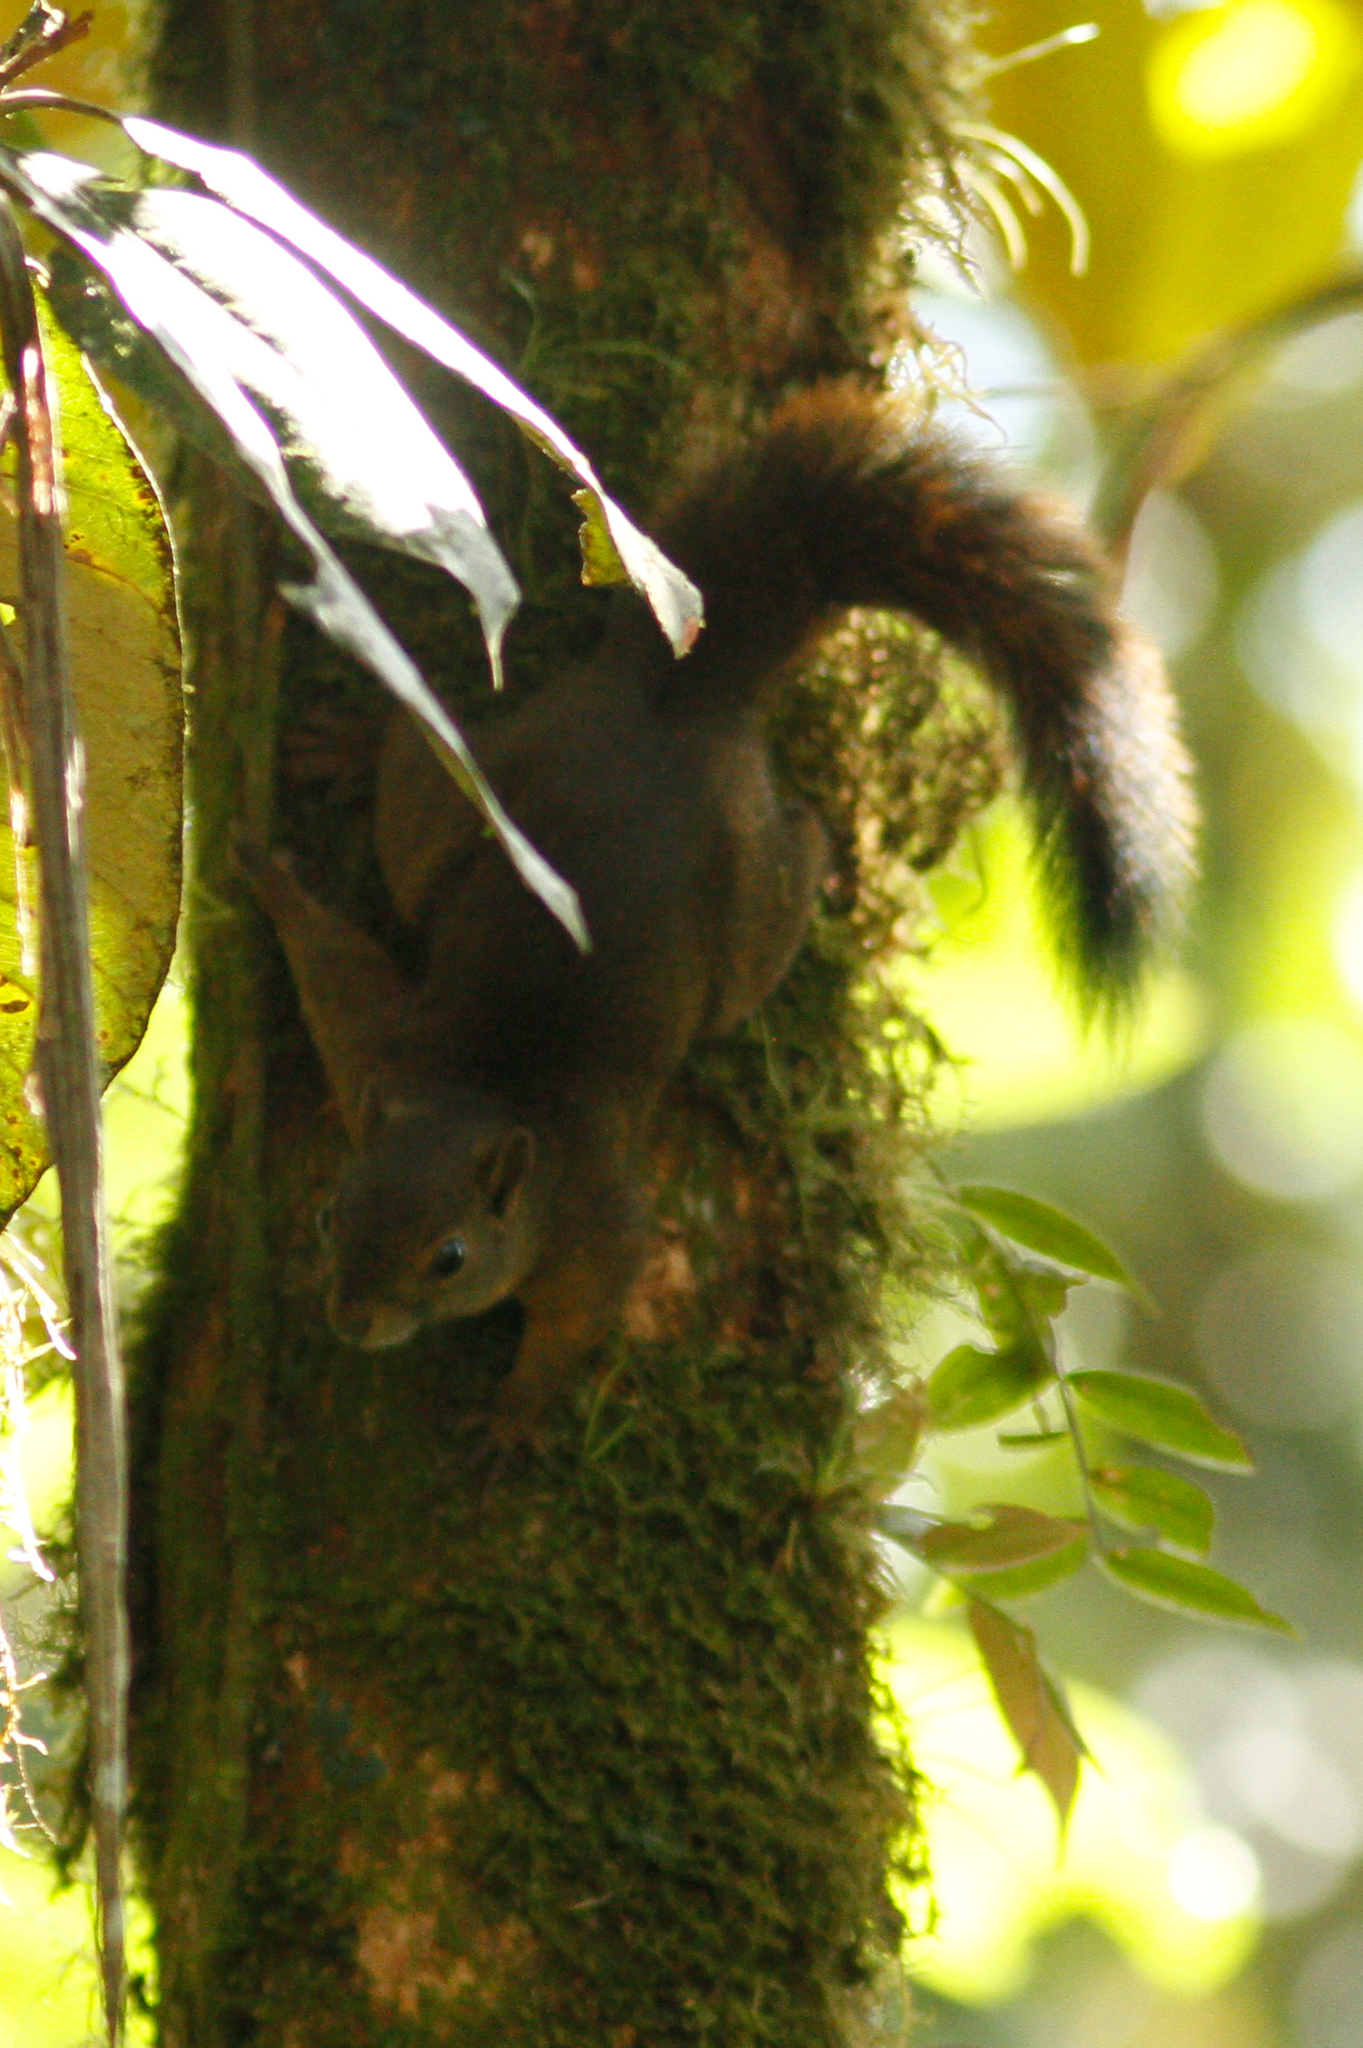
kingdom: Animalia
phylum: Chordata
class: Mammalia
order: Rodentia
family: Sciuridae
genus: Sciurus
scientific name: Sciurus granatensis
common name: Red-tailed squirrel
